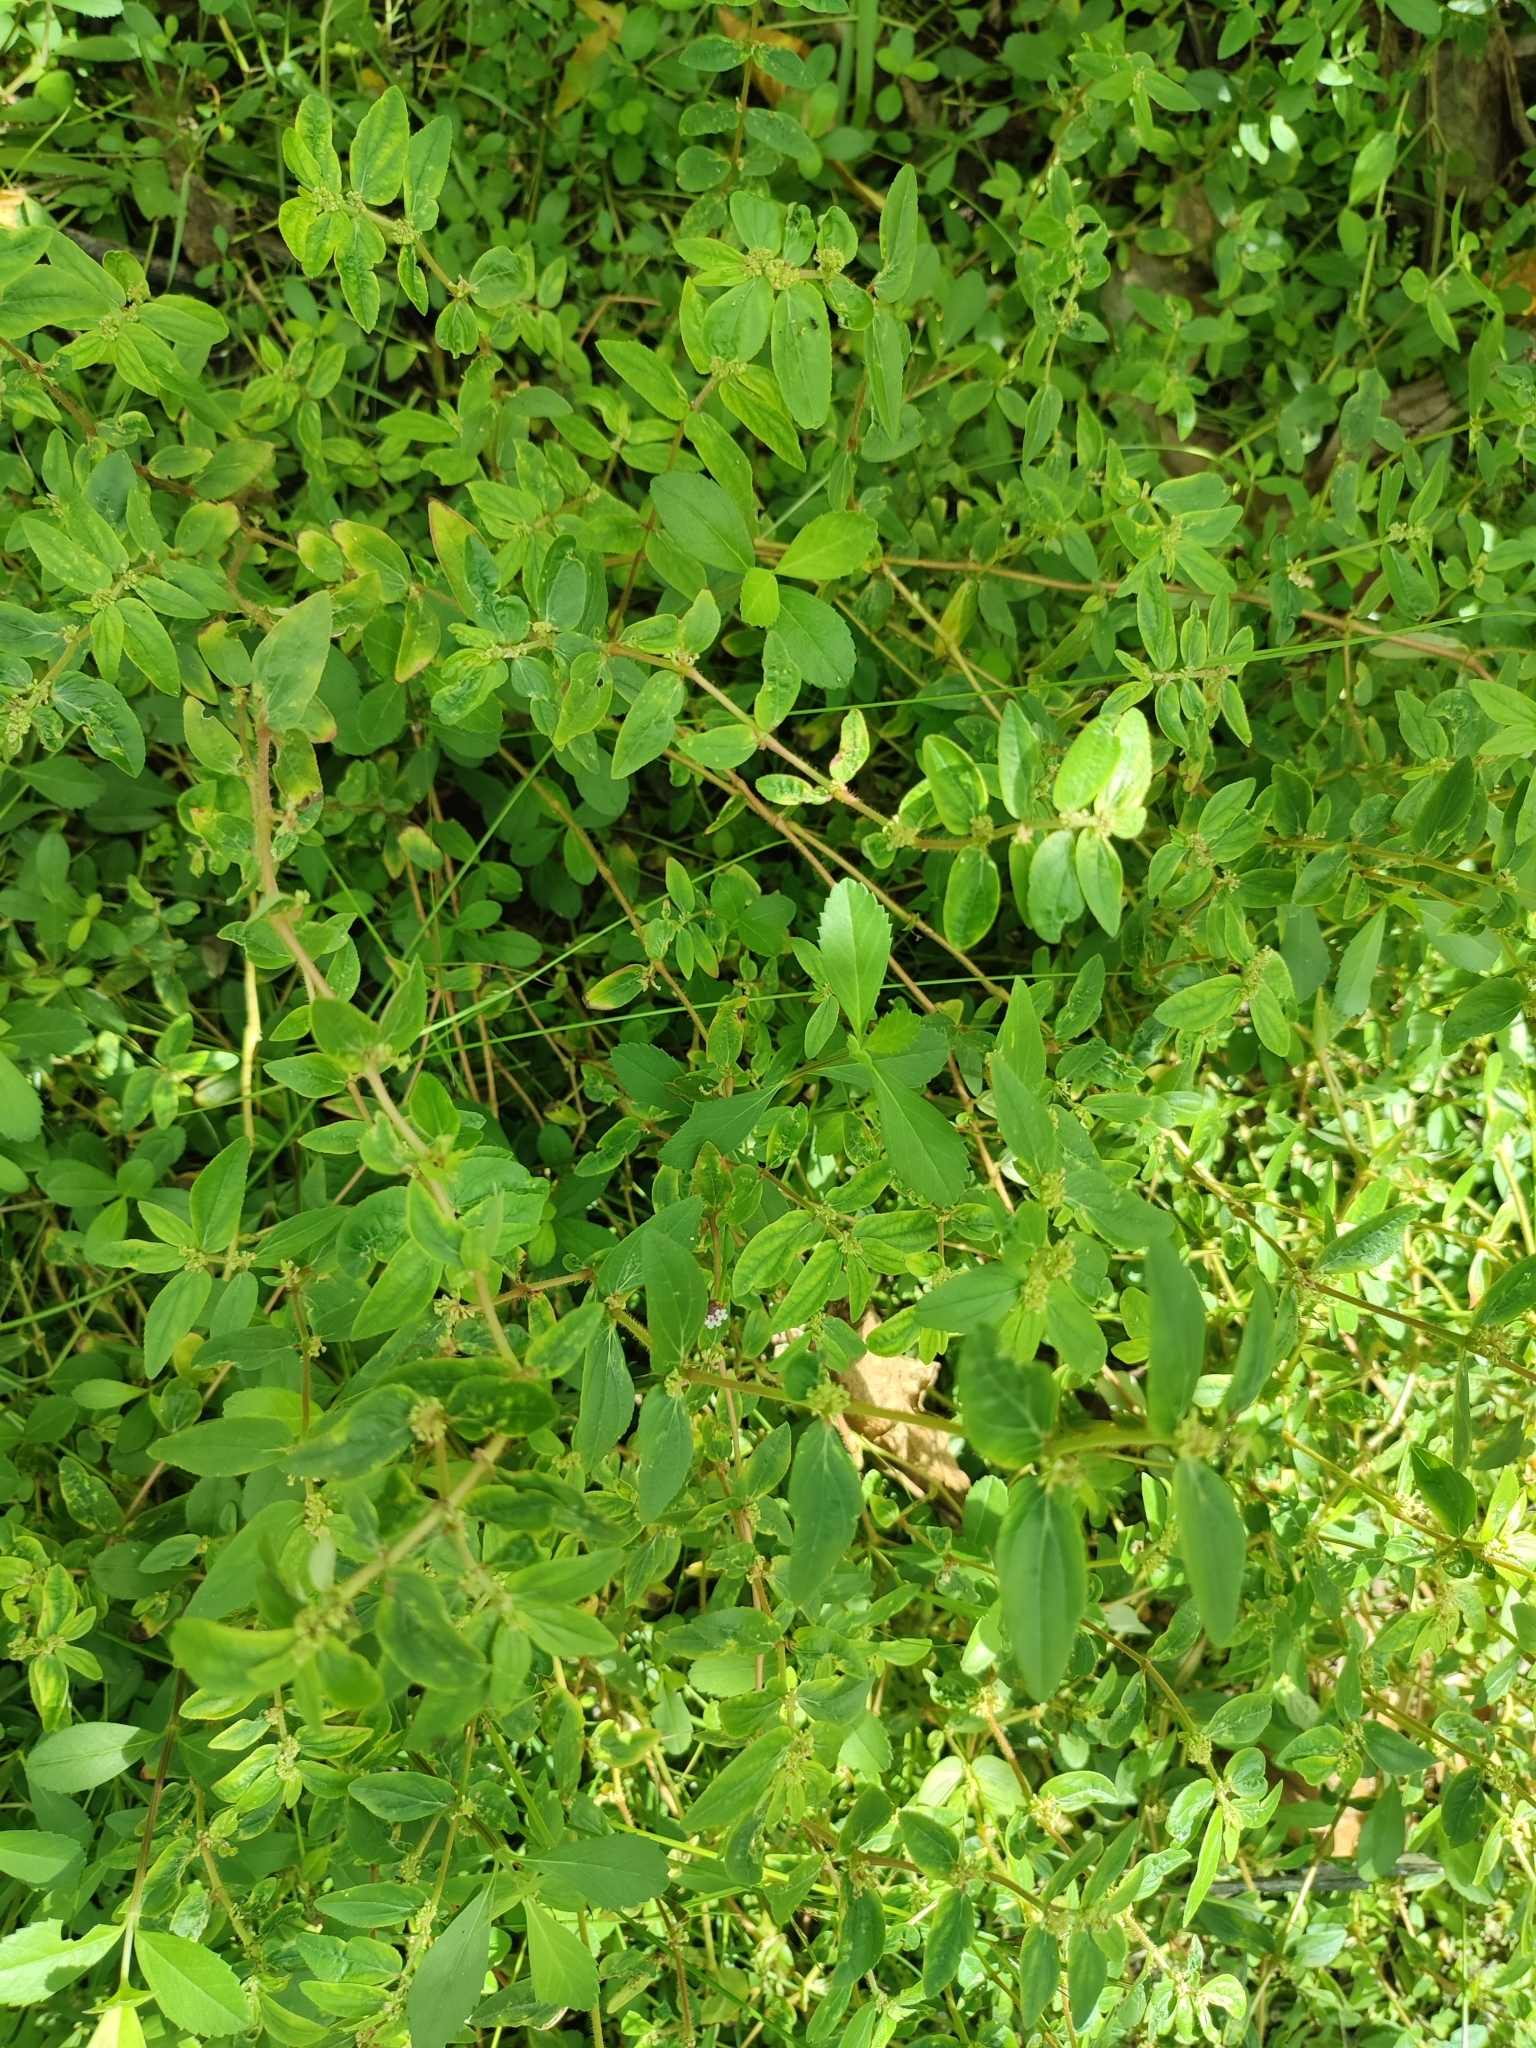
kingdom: Plantae
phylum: Tracheophyta
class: Magnoliopsida
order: Malpighiales
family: Euphorbiaceae
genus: Euphorbia
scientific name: Euphorbia hirta
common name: Pillpod sandmat
